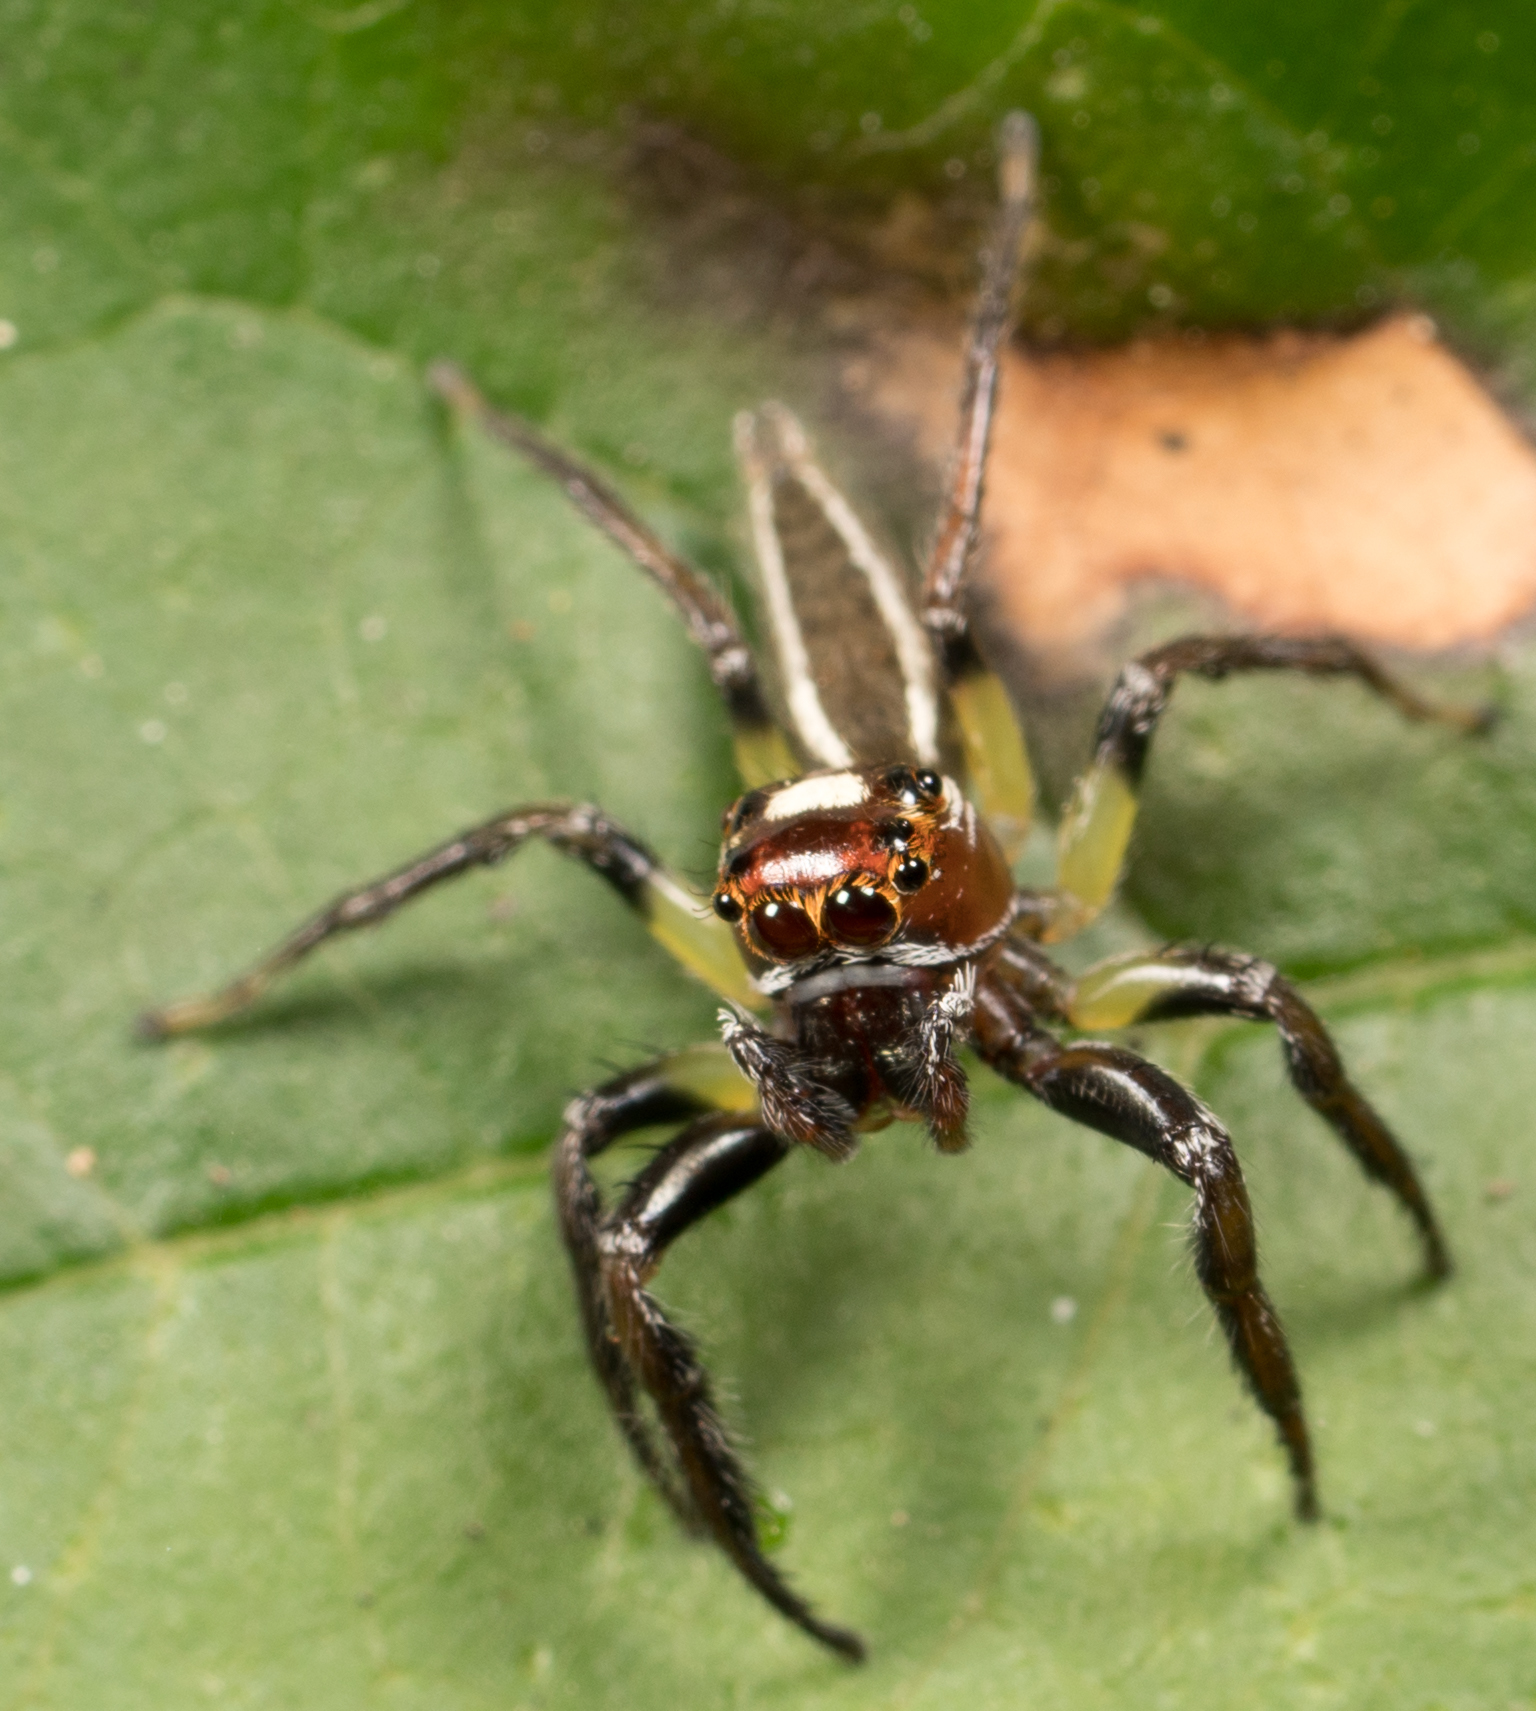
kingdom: Animalia
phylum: Arthropoda
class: Arachnida
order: Araneae
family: Salticidae
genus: Colonus
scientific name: Colonus sylvanus
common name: Jumping spiders
